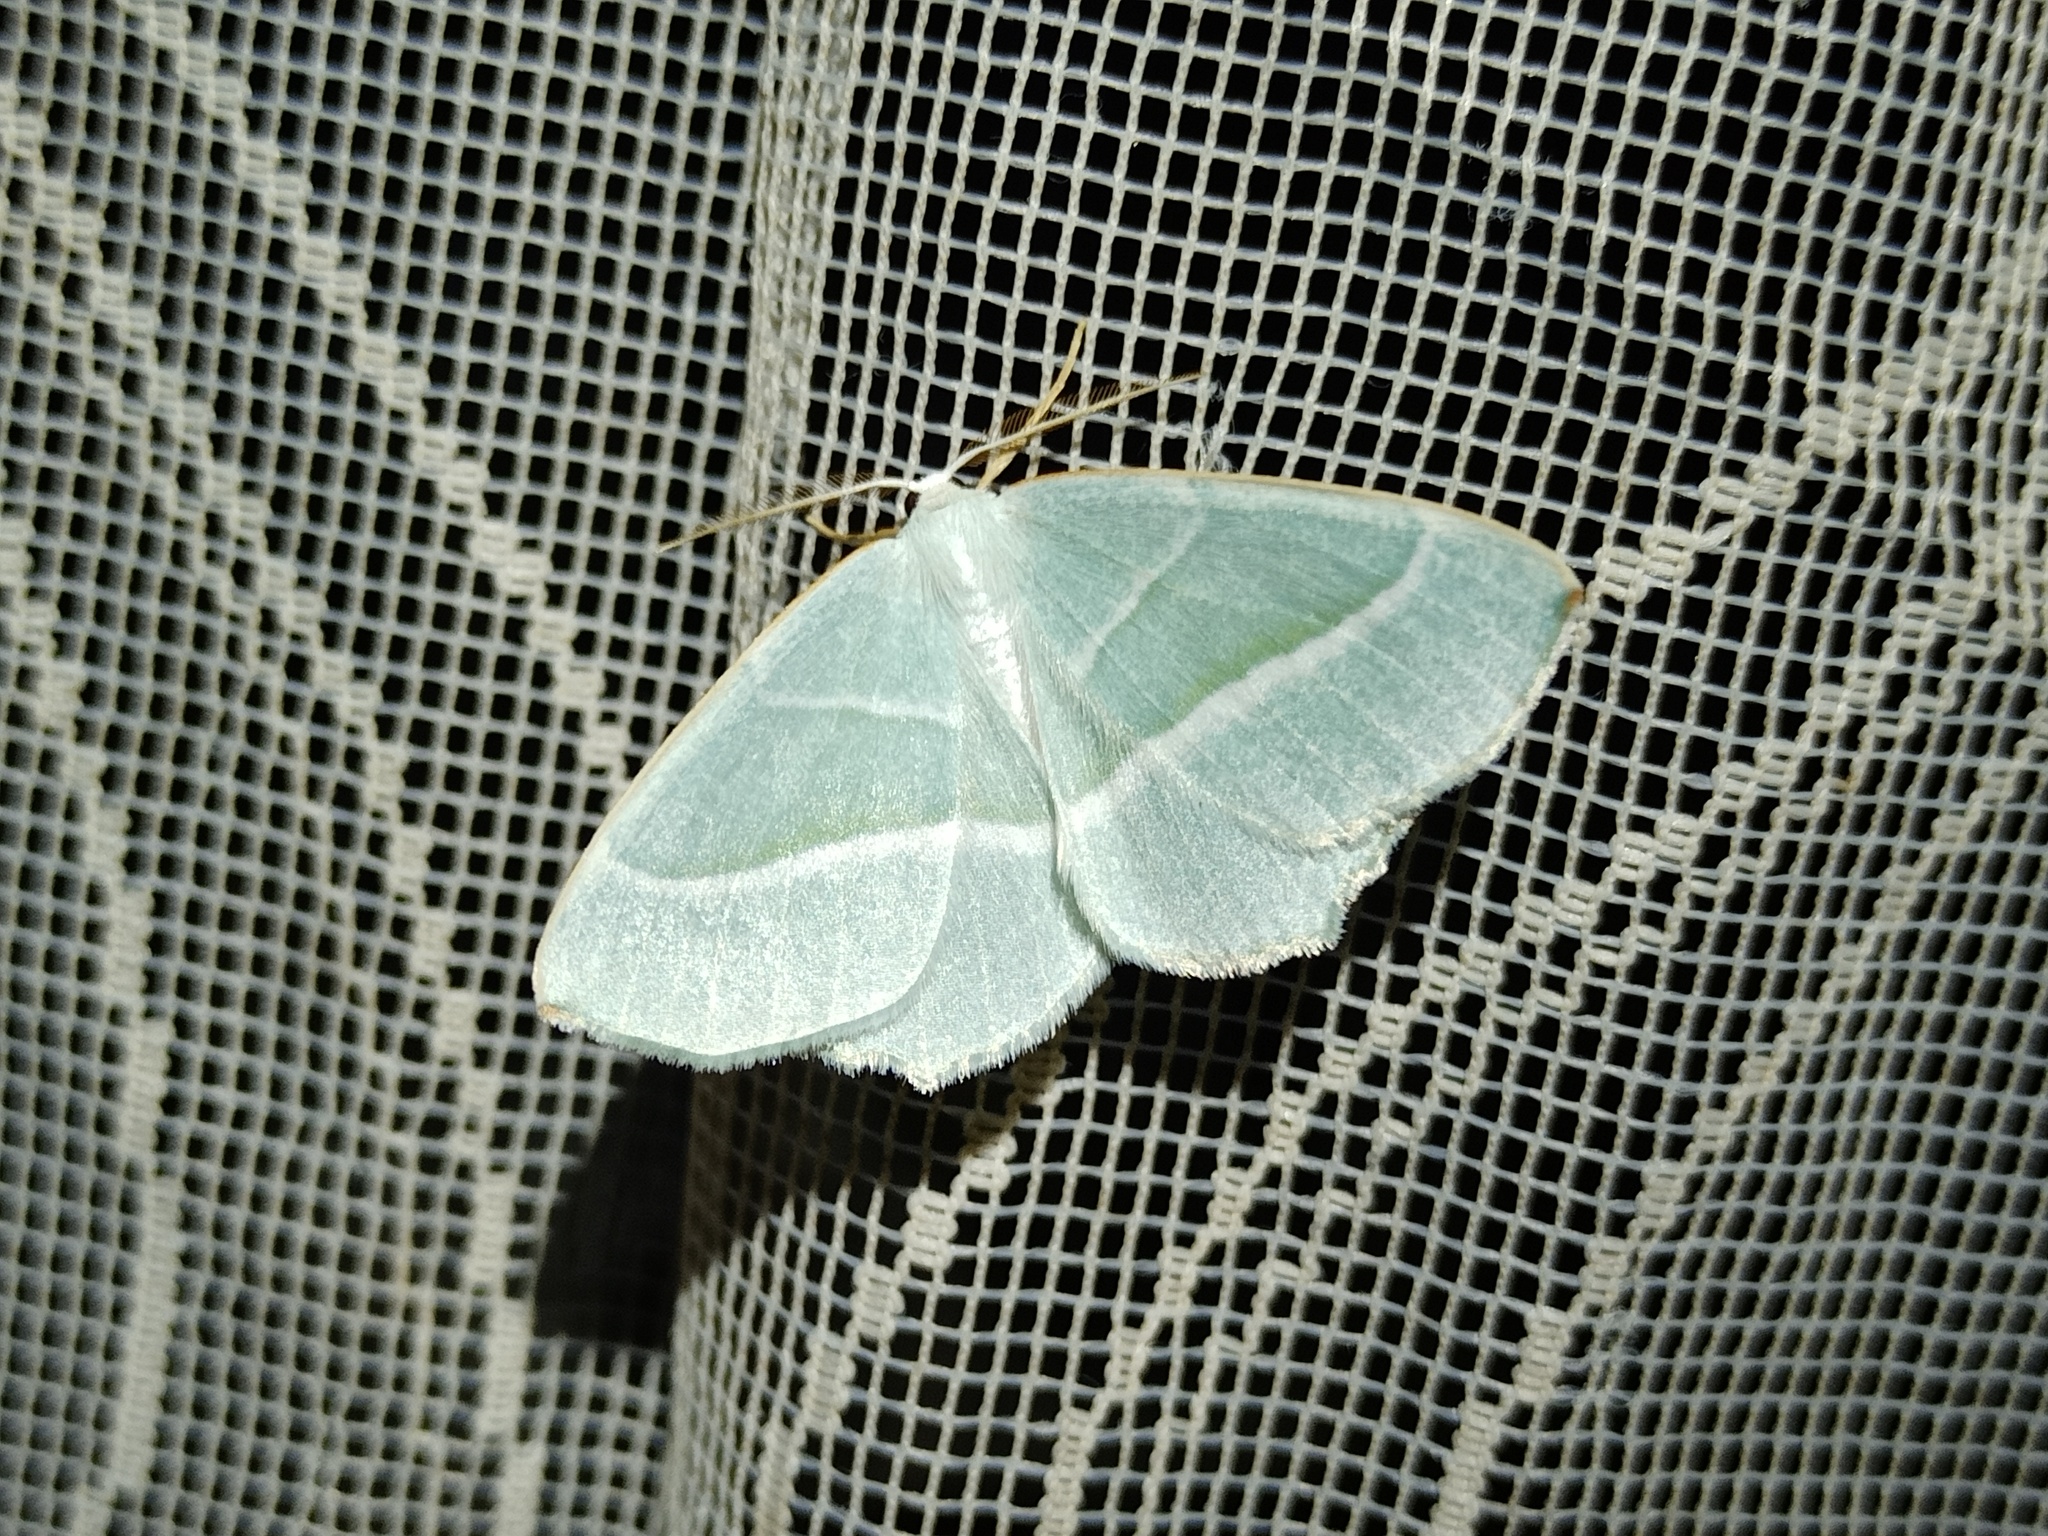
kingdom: Animalia
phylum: Arthropoda
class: Insecta
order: Lepidoptera
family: Geometridae
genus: Campaea
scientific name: Campaea margaritaria
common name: Light emerald
